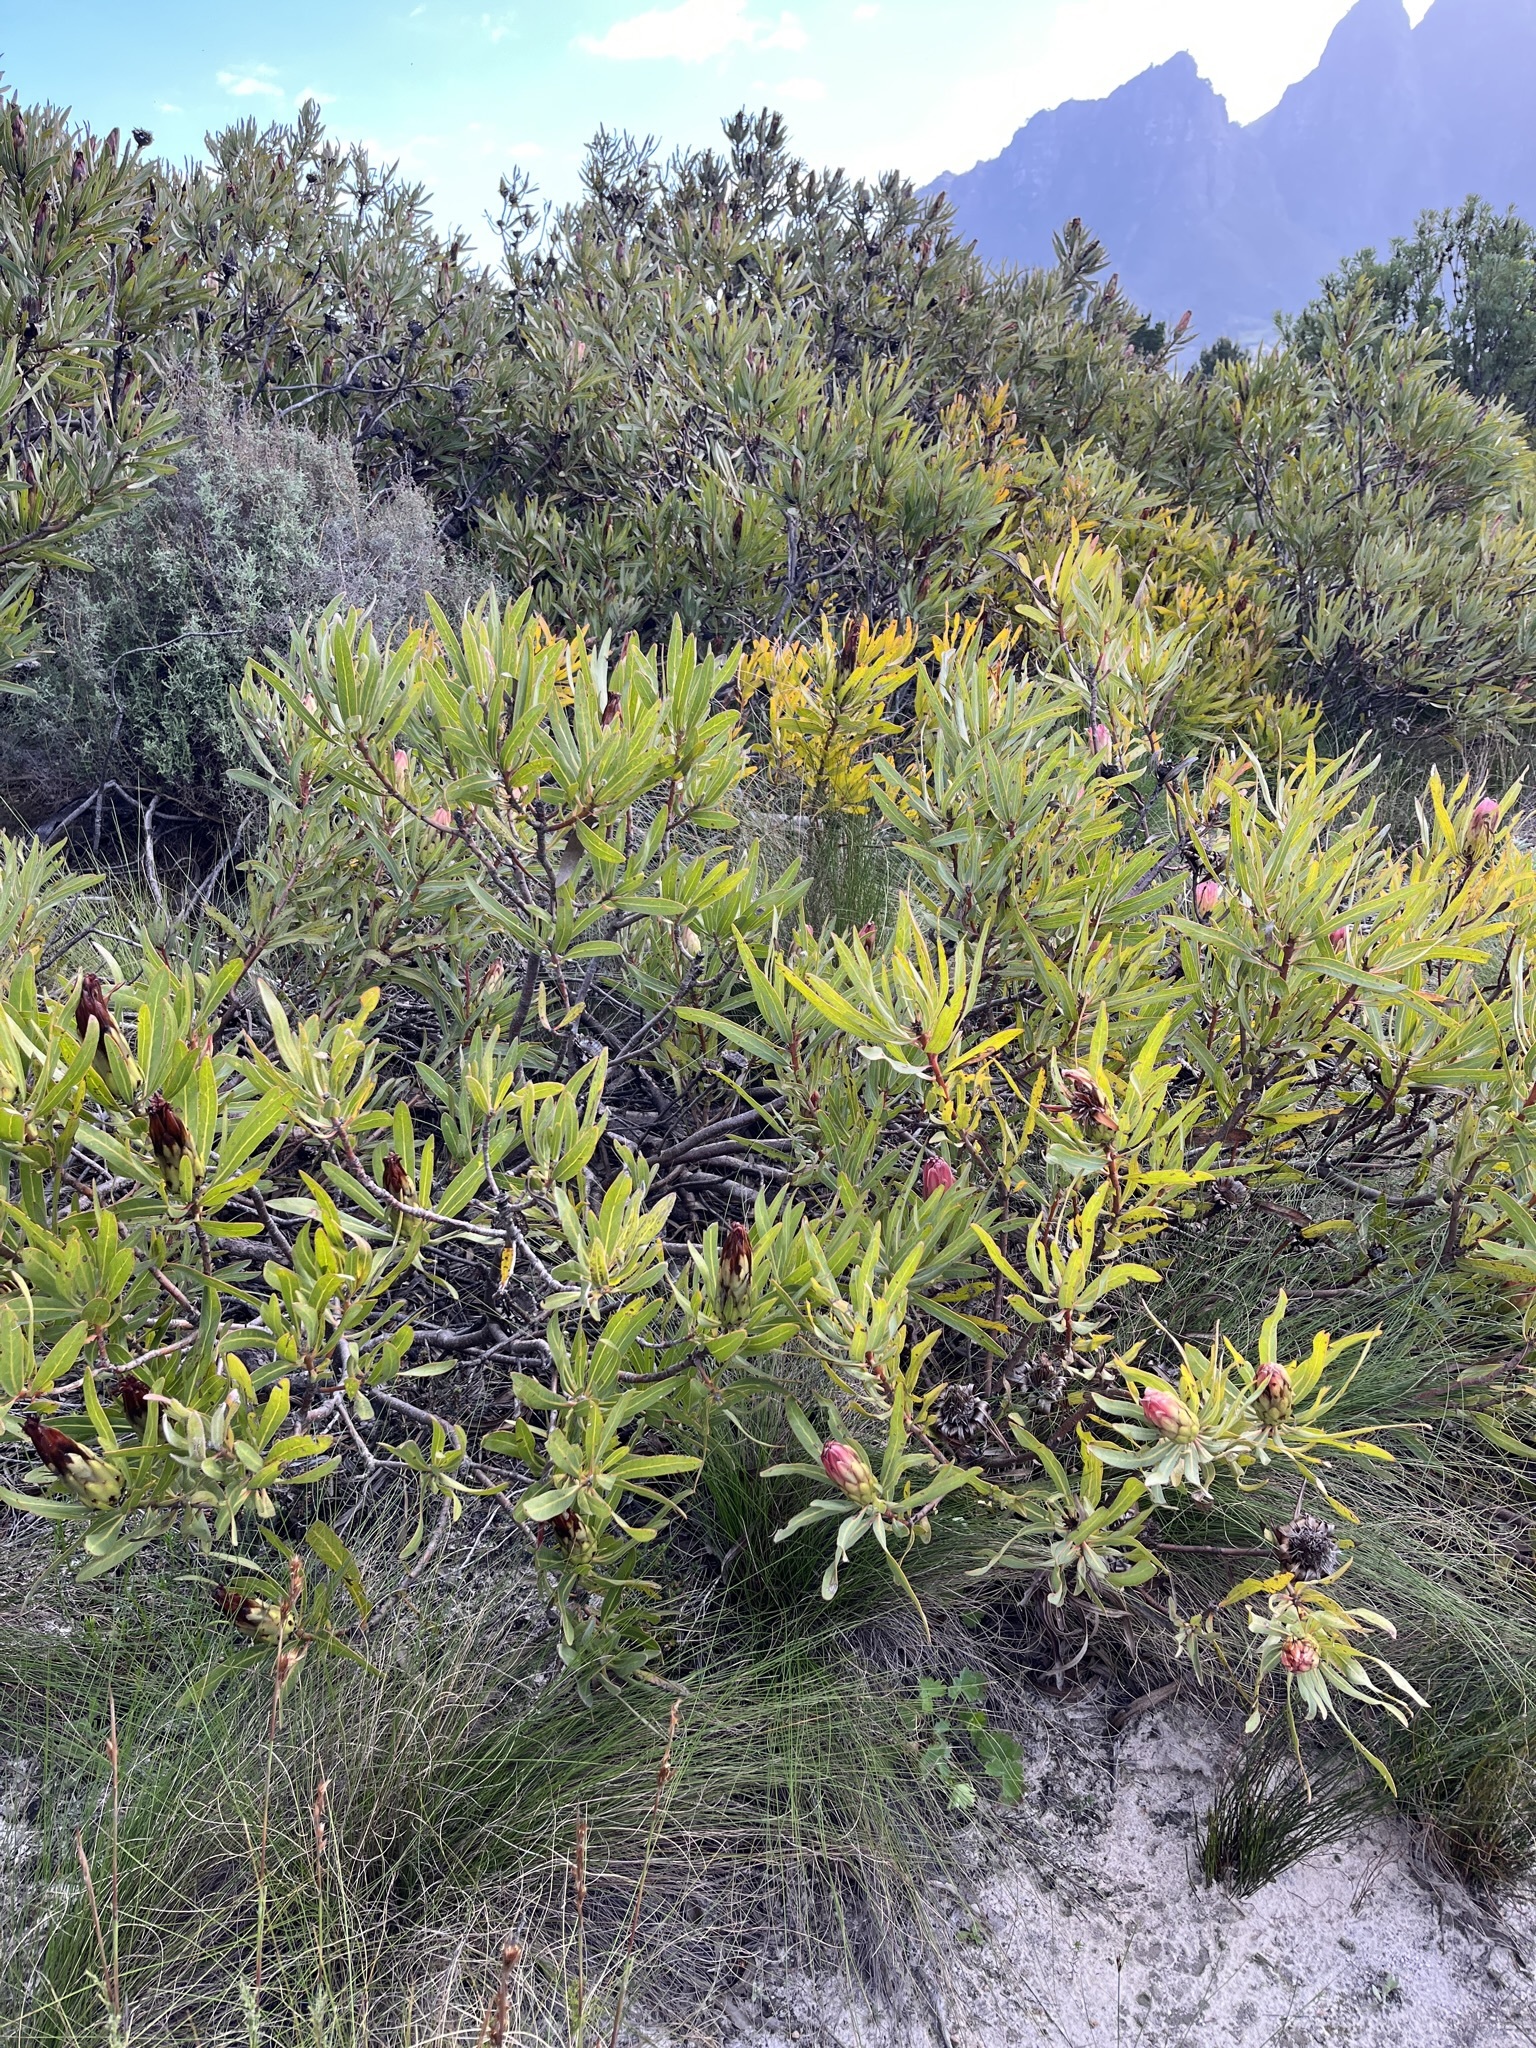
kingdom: Plantae
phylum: Tracheophyta
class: Magnoliopsida
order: Proteales
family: Proteaceae
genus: Protea
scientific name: Protea burchellii
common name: Burchell's sugarbush
